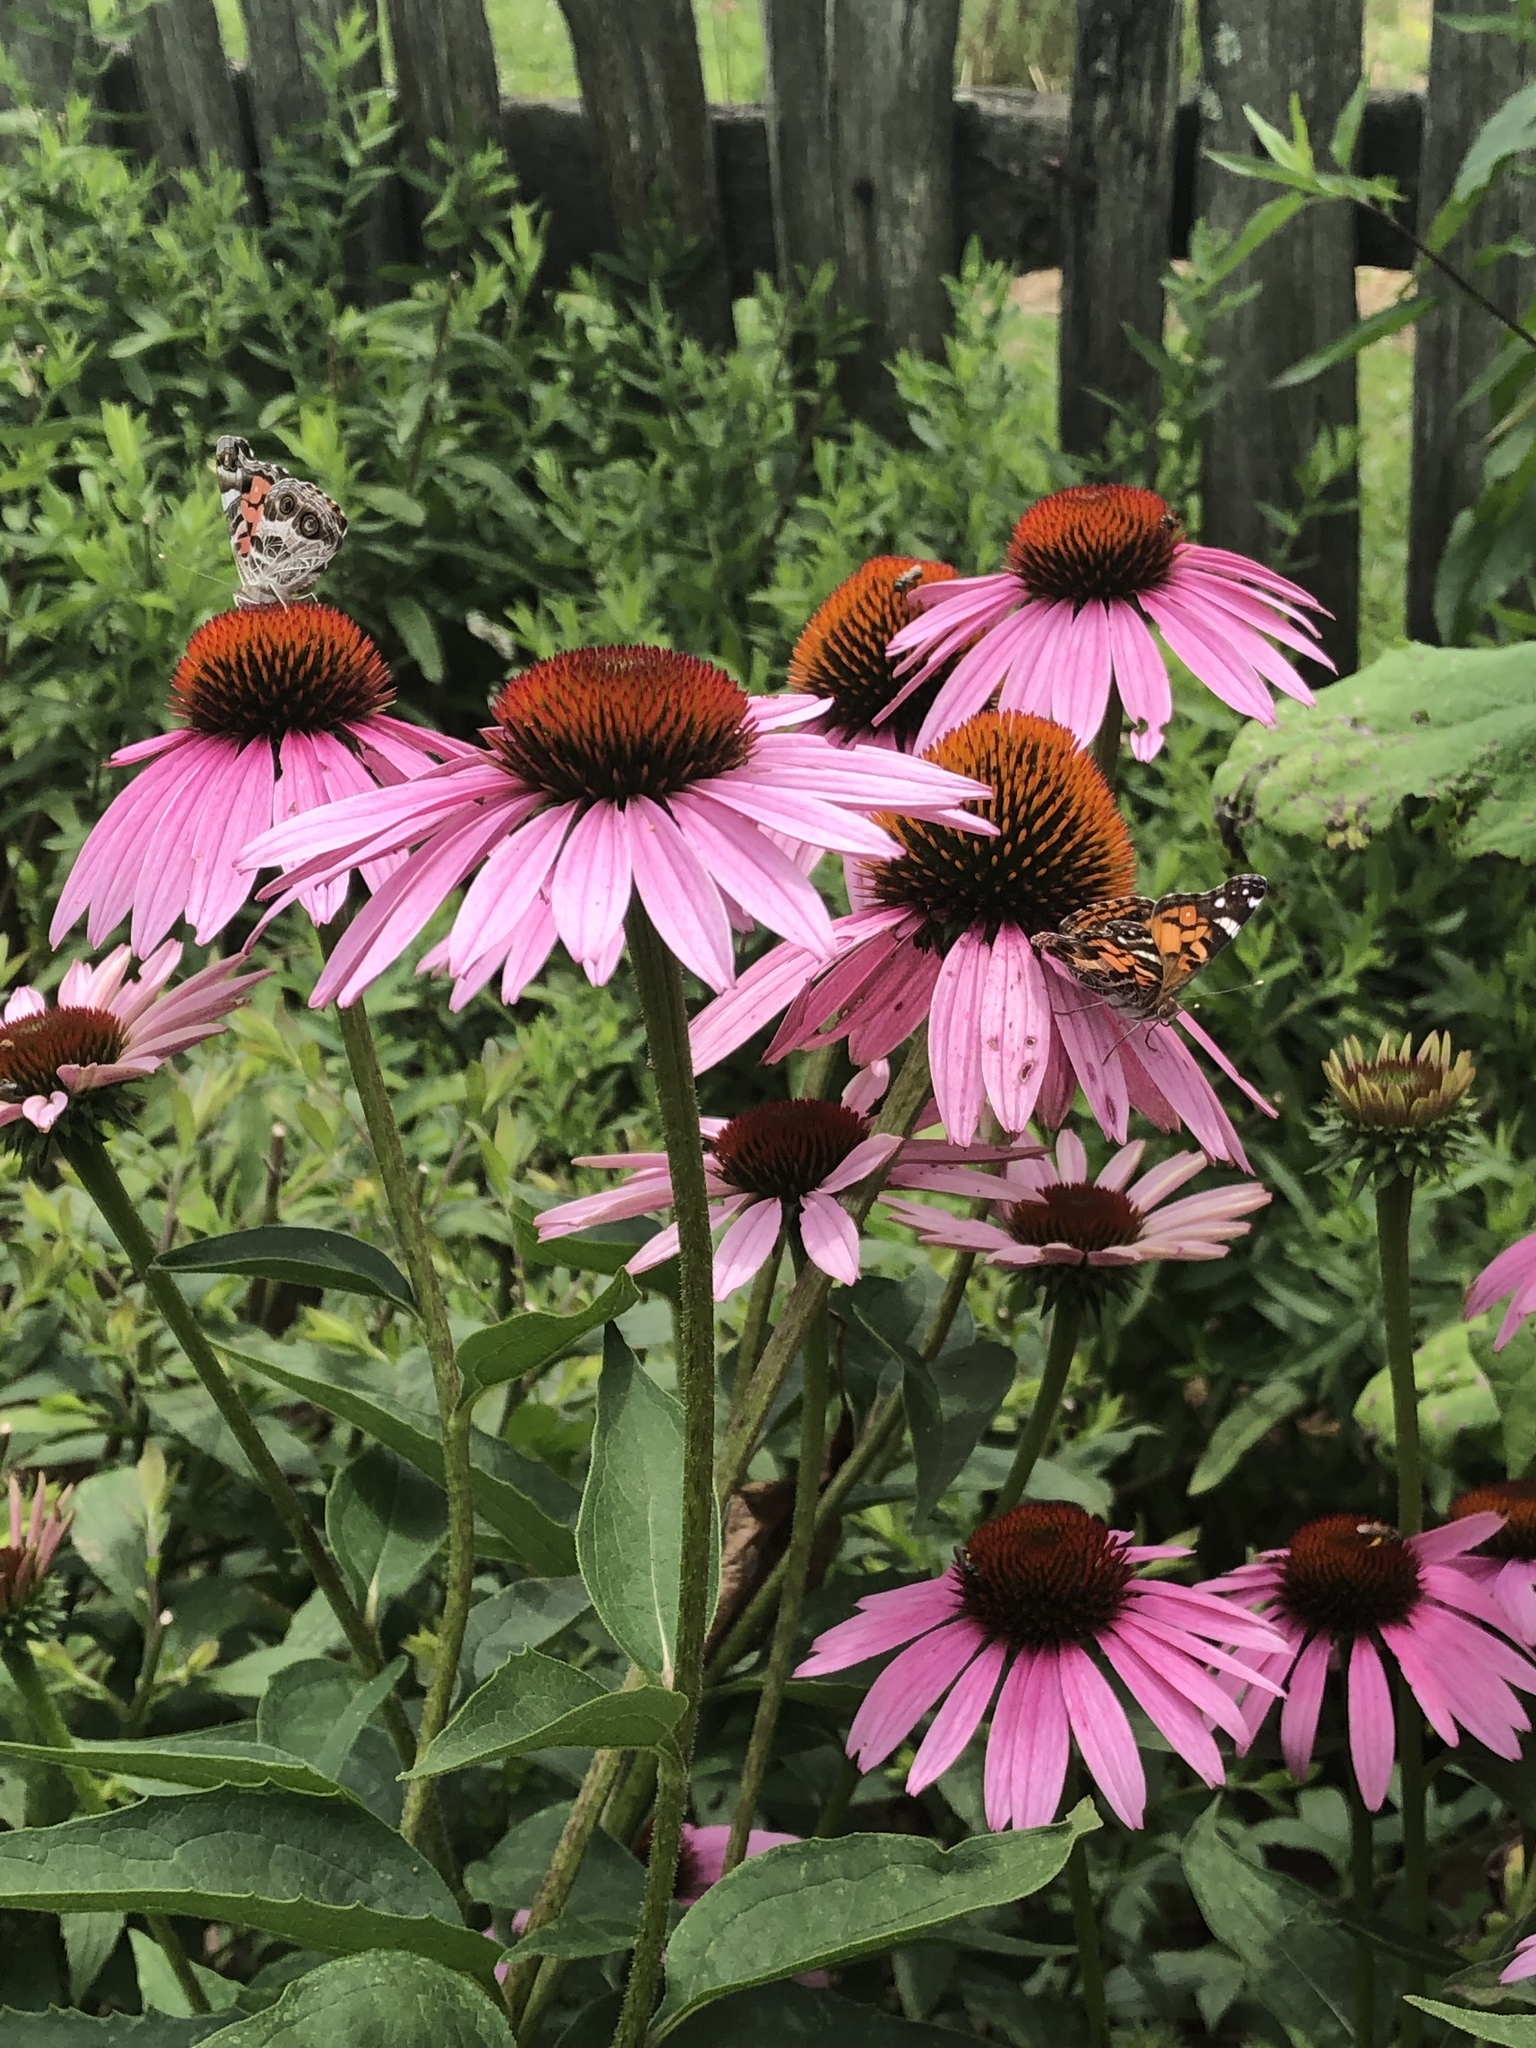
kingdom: Animalia
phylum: Arthropoda
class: Insecta
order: Lepidoptera
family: Nymphalidae
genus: Vanessa
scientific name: Vanessa cardui
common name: Painted lady
